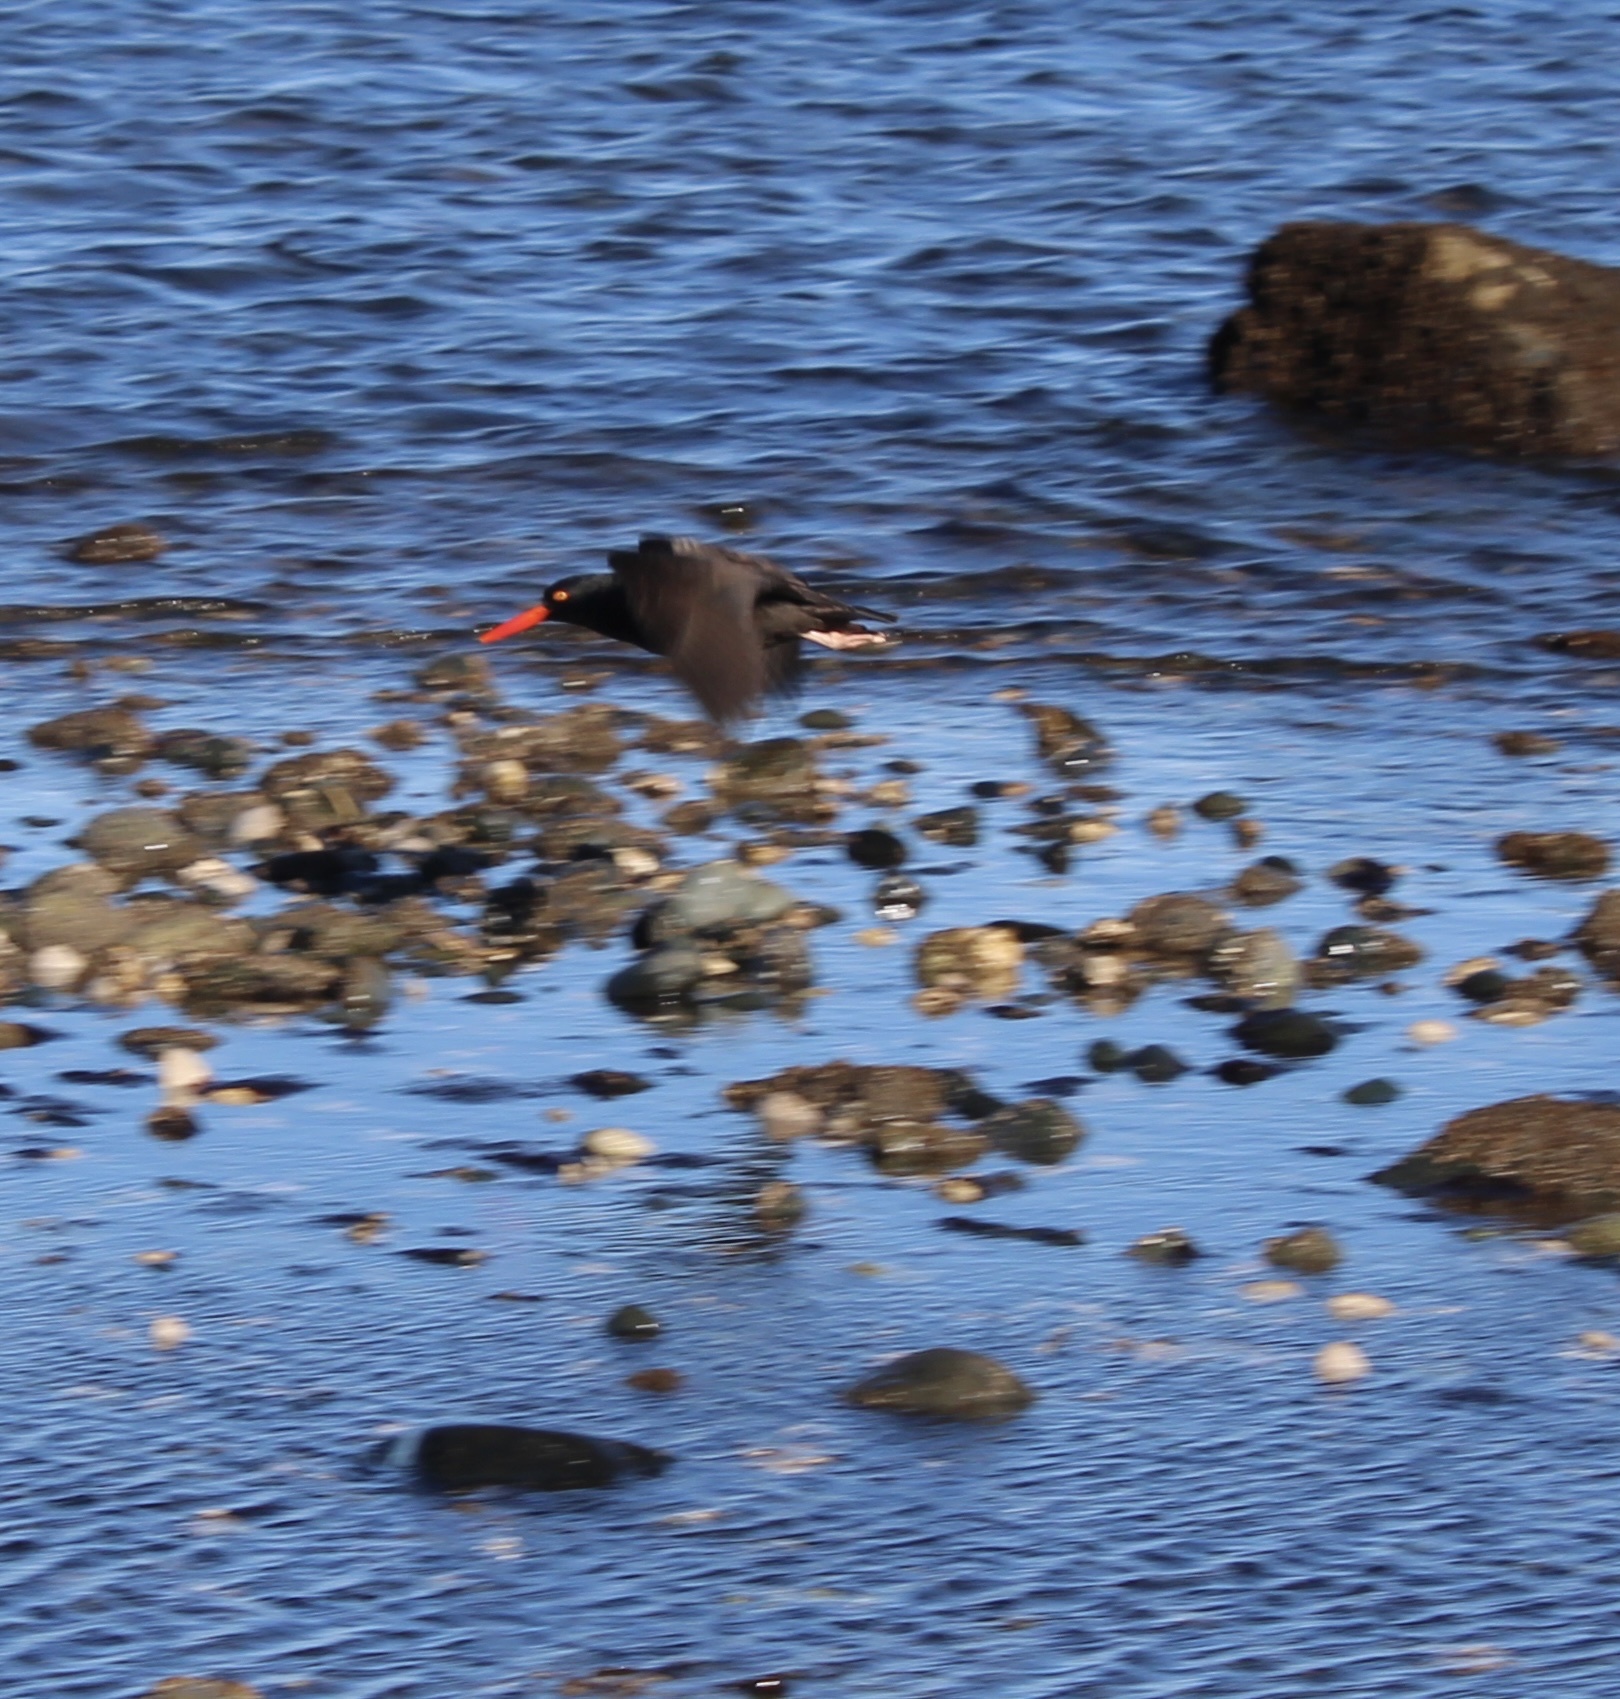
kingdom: Animalia
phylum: Chordata
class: Aves
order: Charadriiformes
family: Haematopodidae
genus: Haematopus
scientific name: Haematopus bachmani
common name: Black oystercatcher
